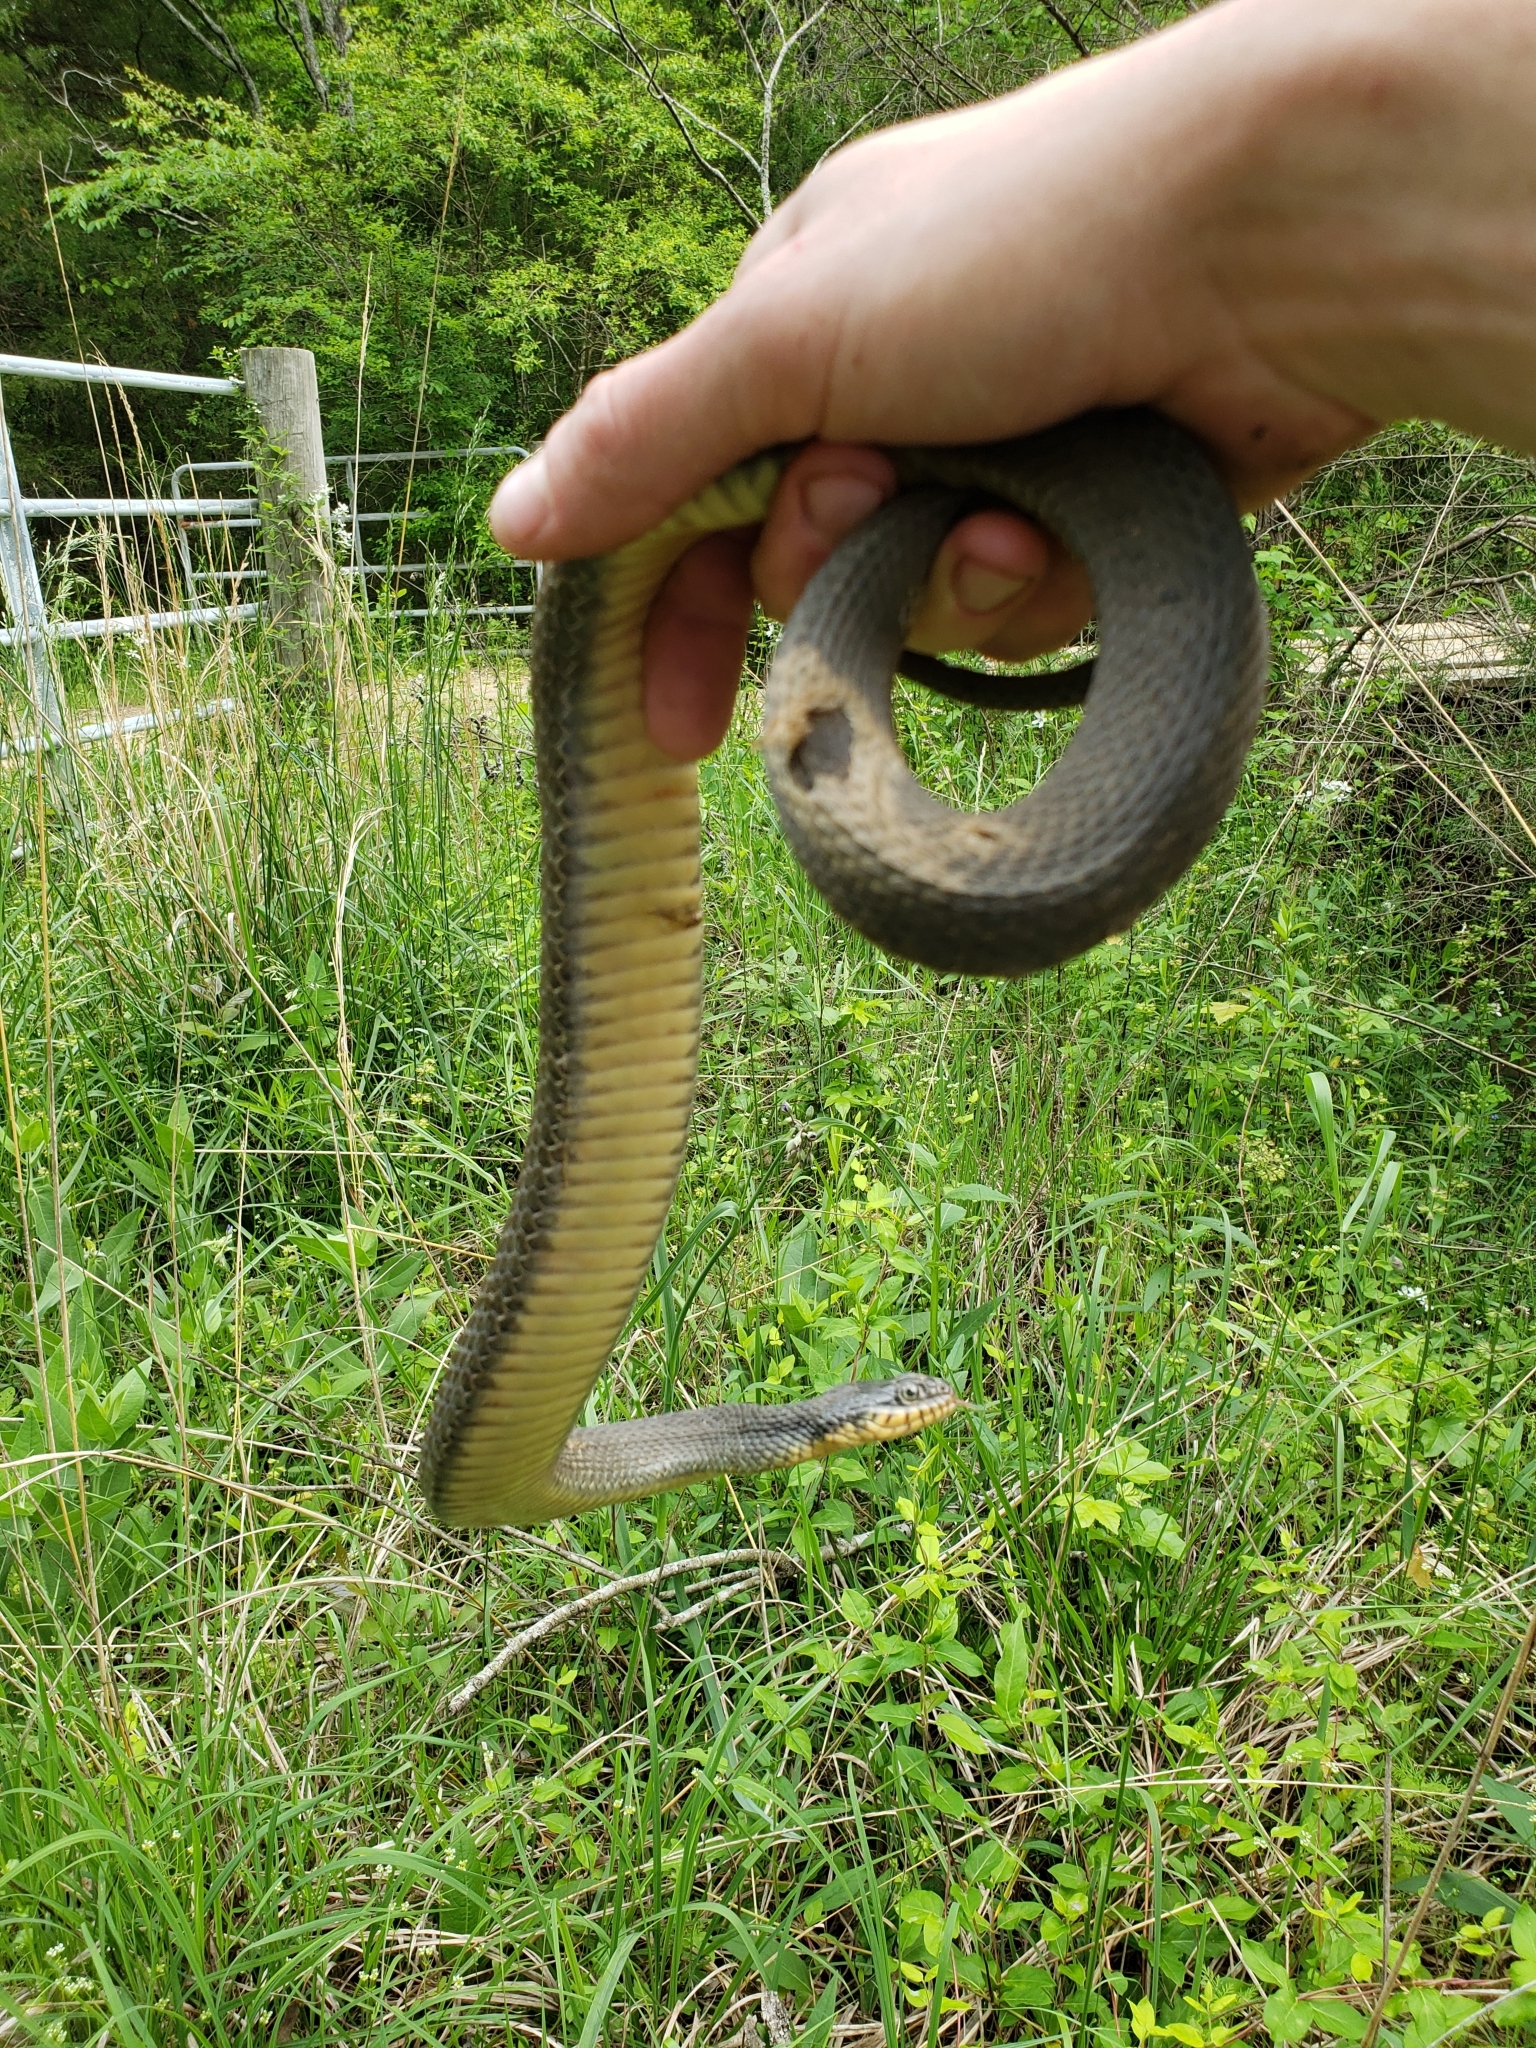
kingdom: Animalia
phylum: Chordata
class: Squamata
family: Colubridae
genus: Nerodia
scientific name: Nerodia erythrogaster
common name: Plainbelly water snake
